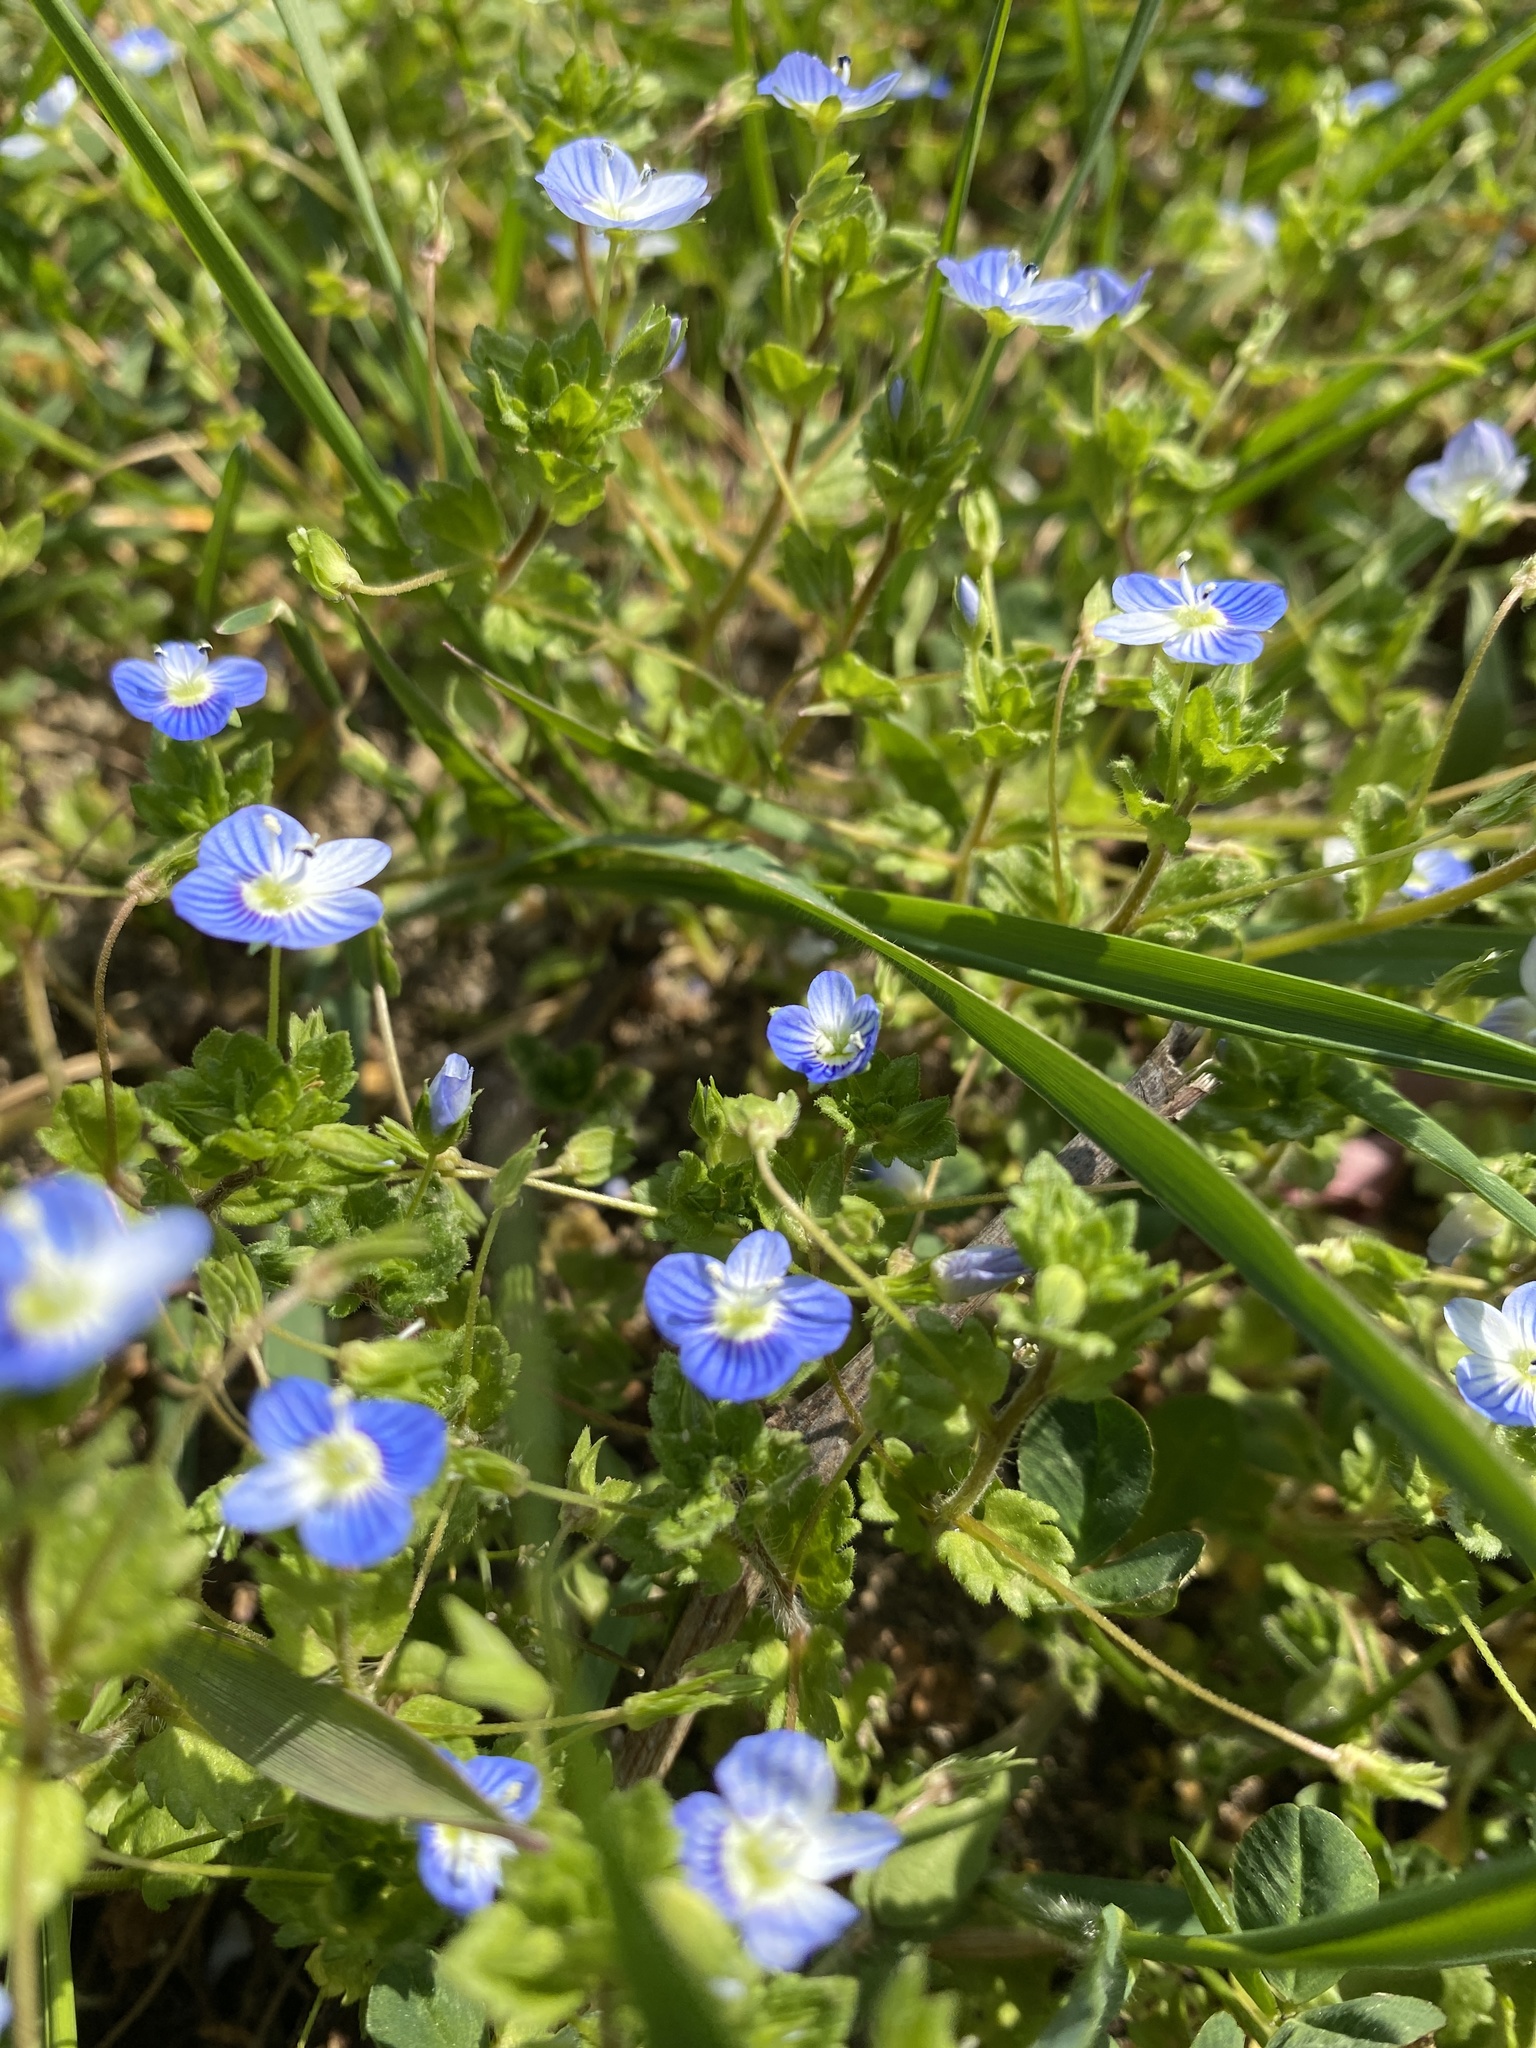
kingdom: Plantae
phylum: Tracheophyta
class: Magnoliopsida
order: Lamiales
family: Plantaginaceae
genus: Veronica
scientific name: Veronica persica
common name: Common field-speedwell
